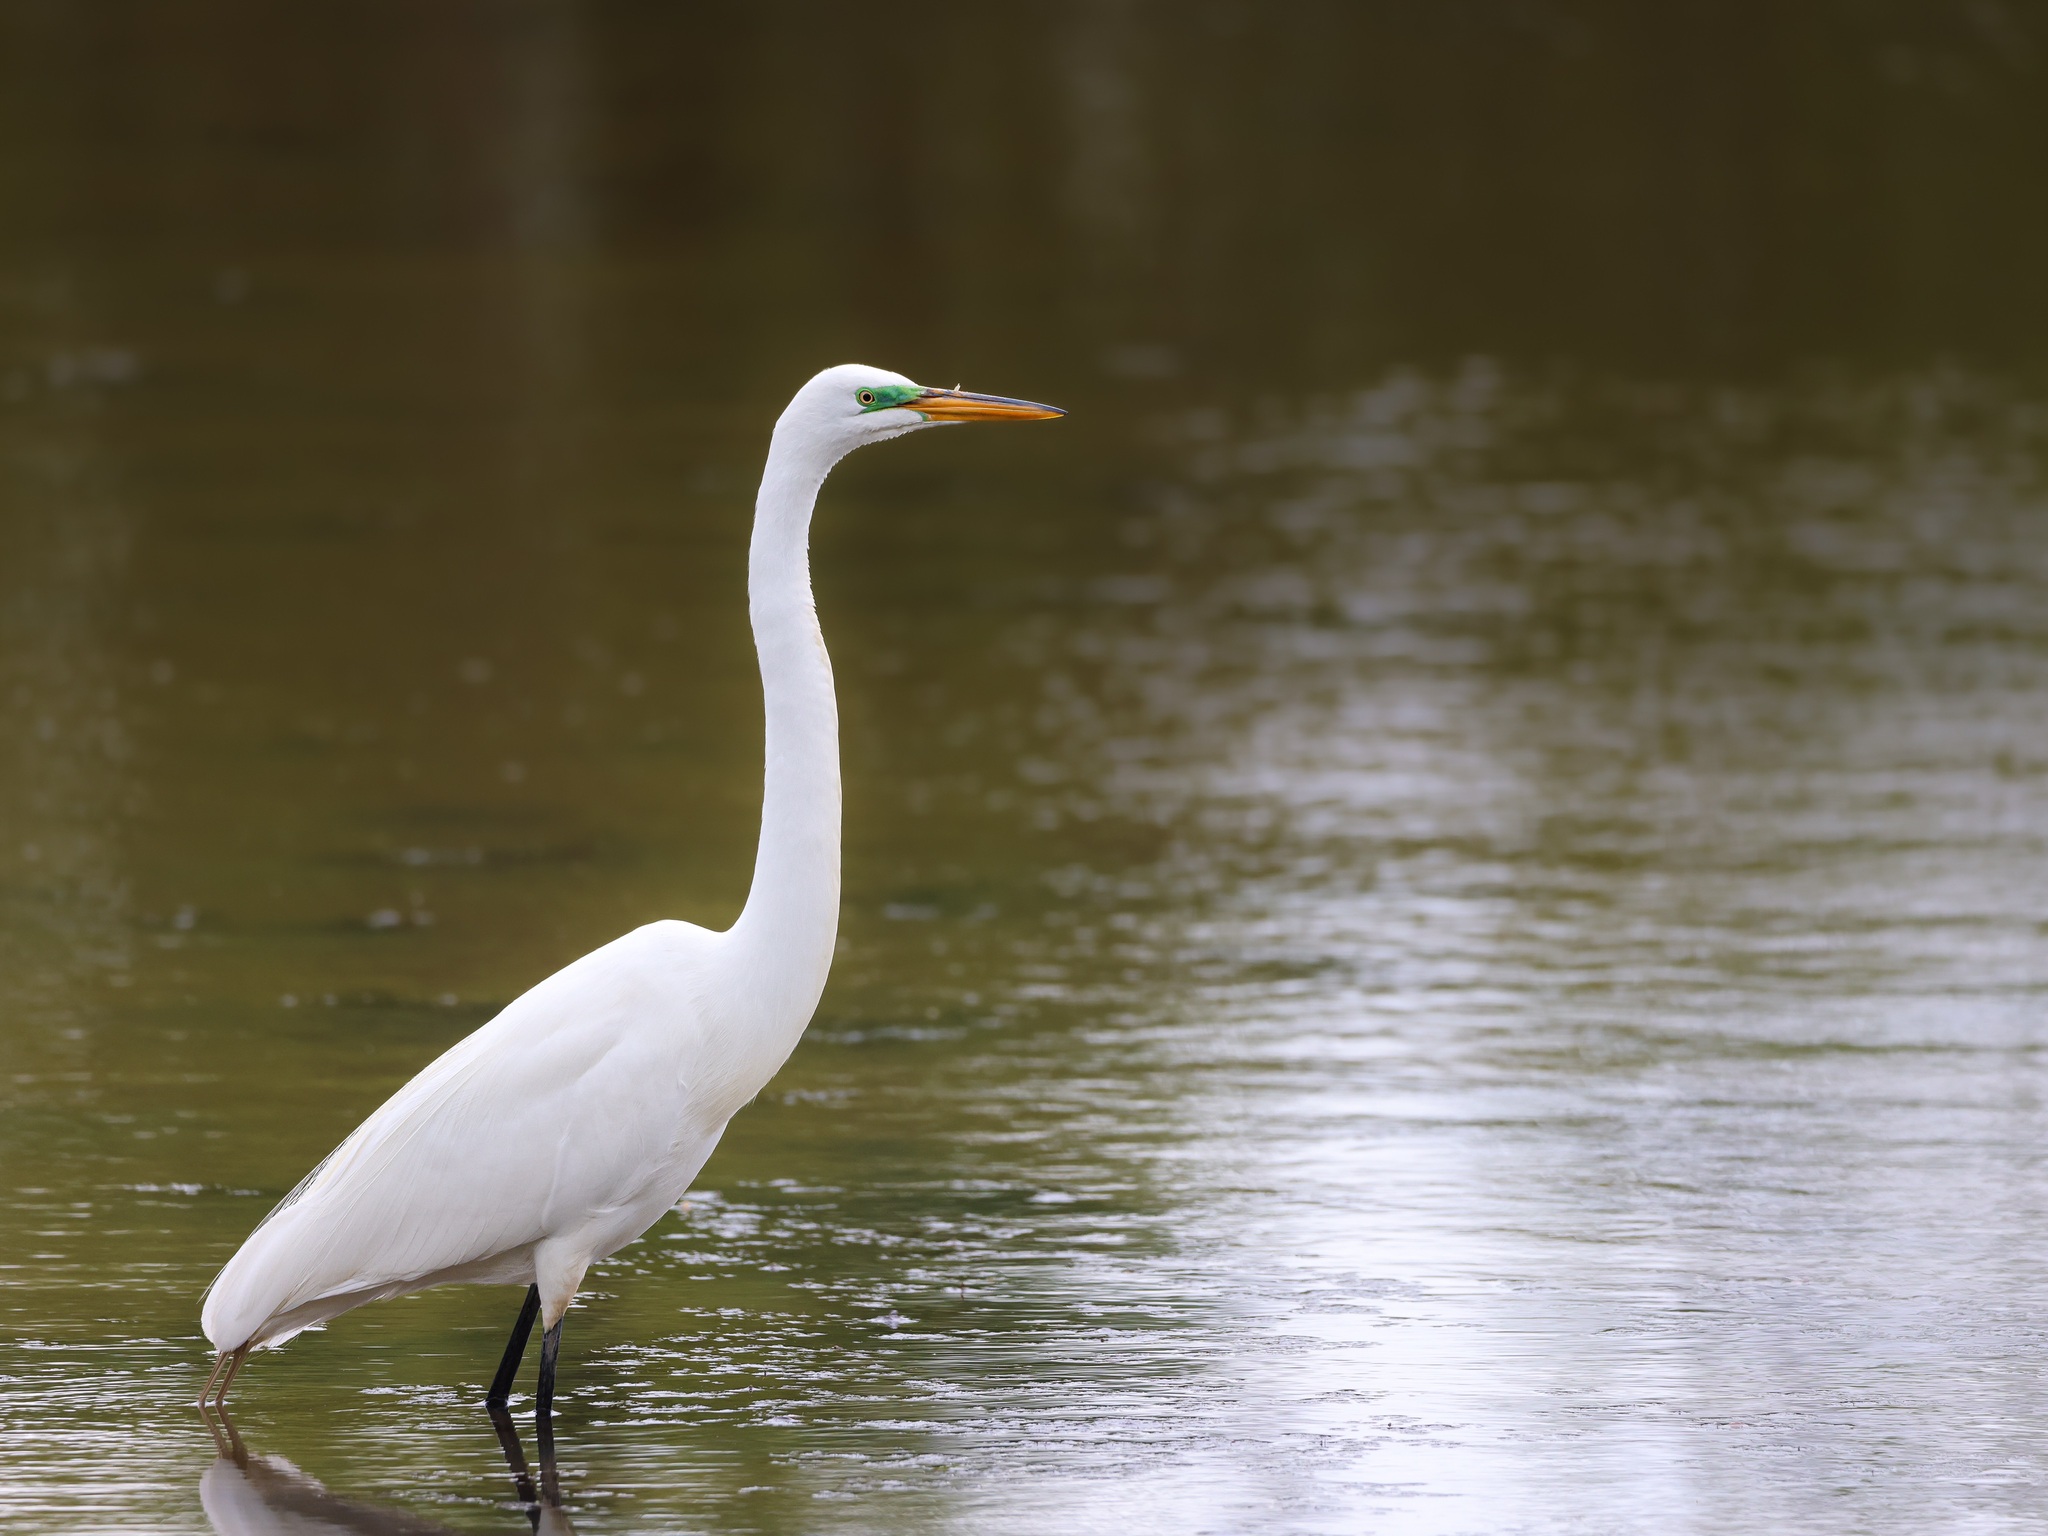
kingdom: Animalia
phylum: Chordata
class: Aves
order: Pelecaniformes
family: Ardeidae
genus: Ardea
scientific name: Ardea alba
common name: Great egret
